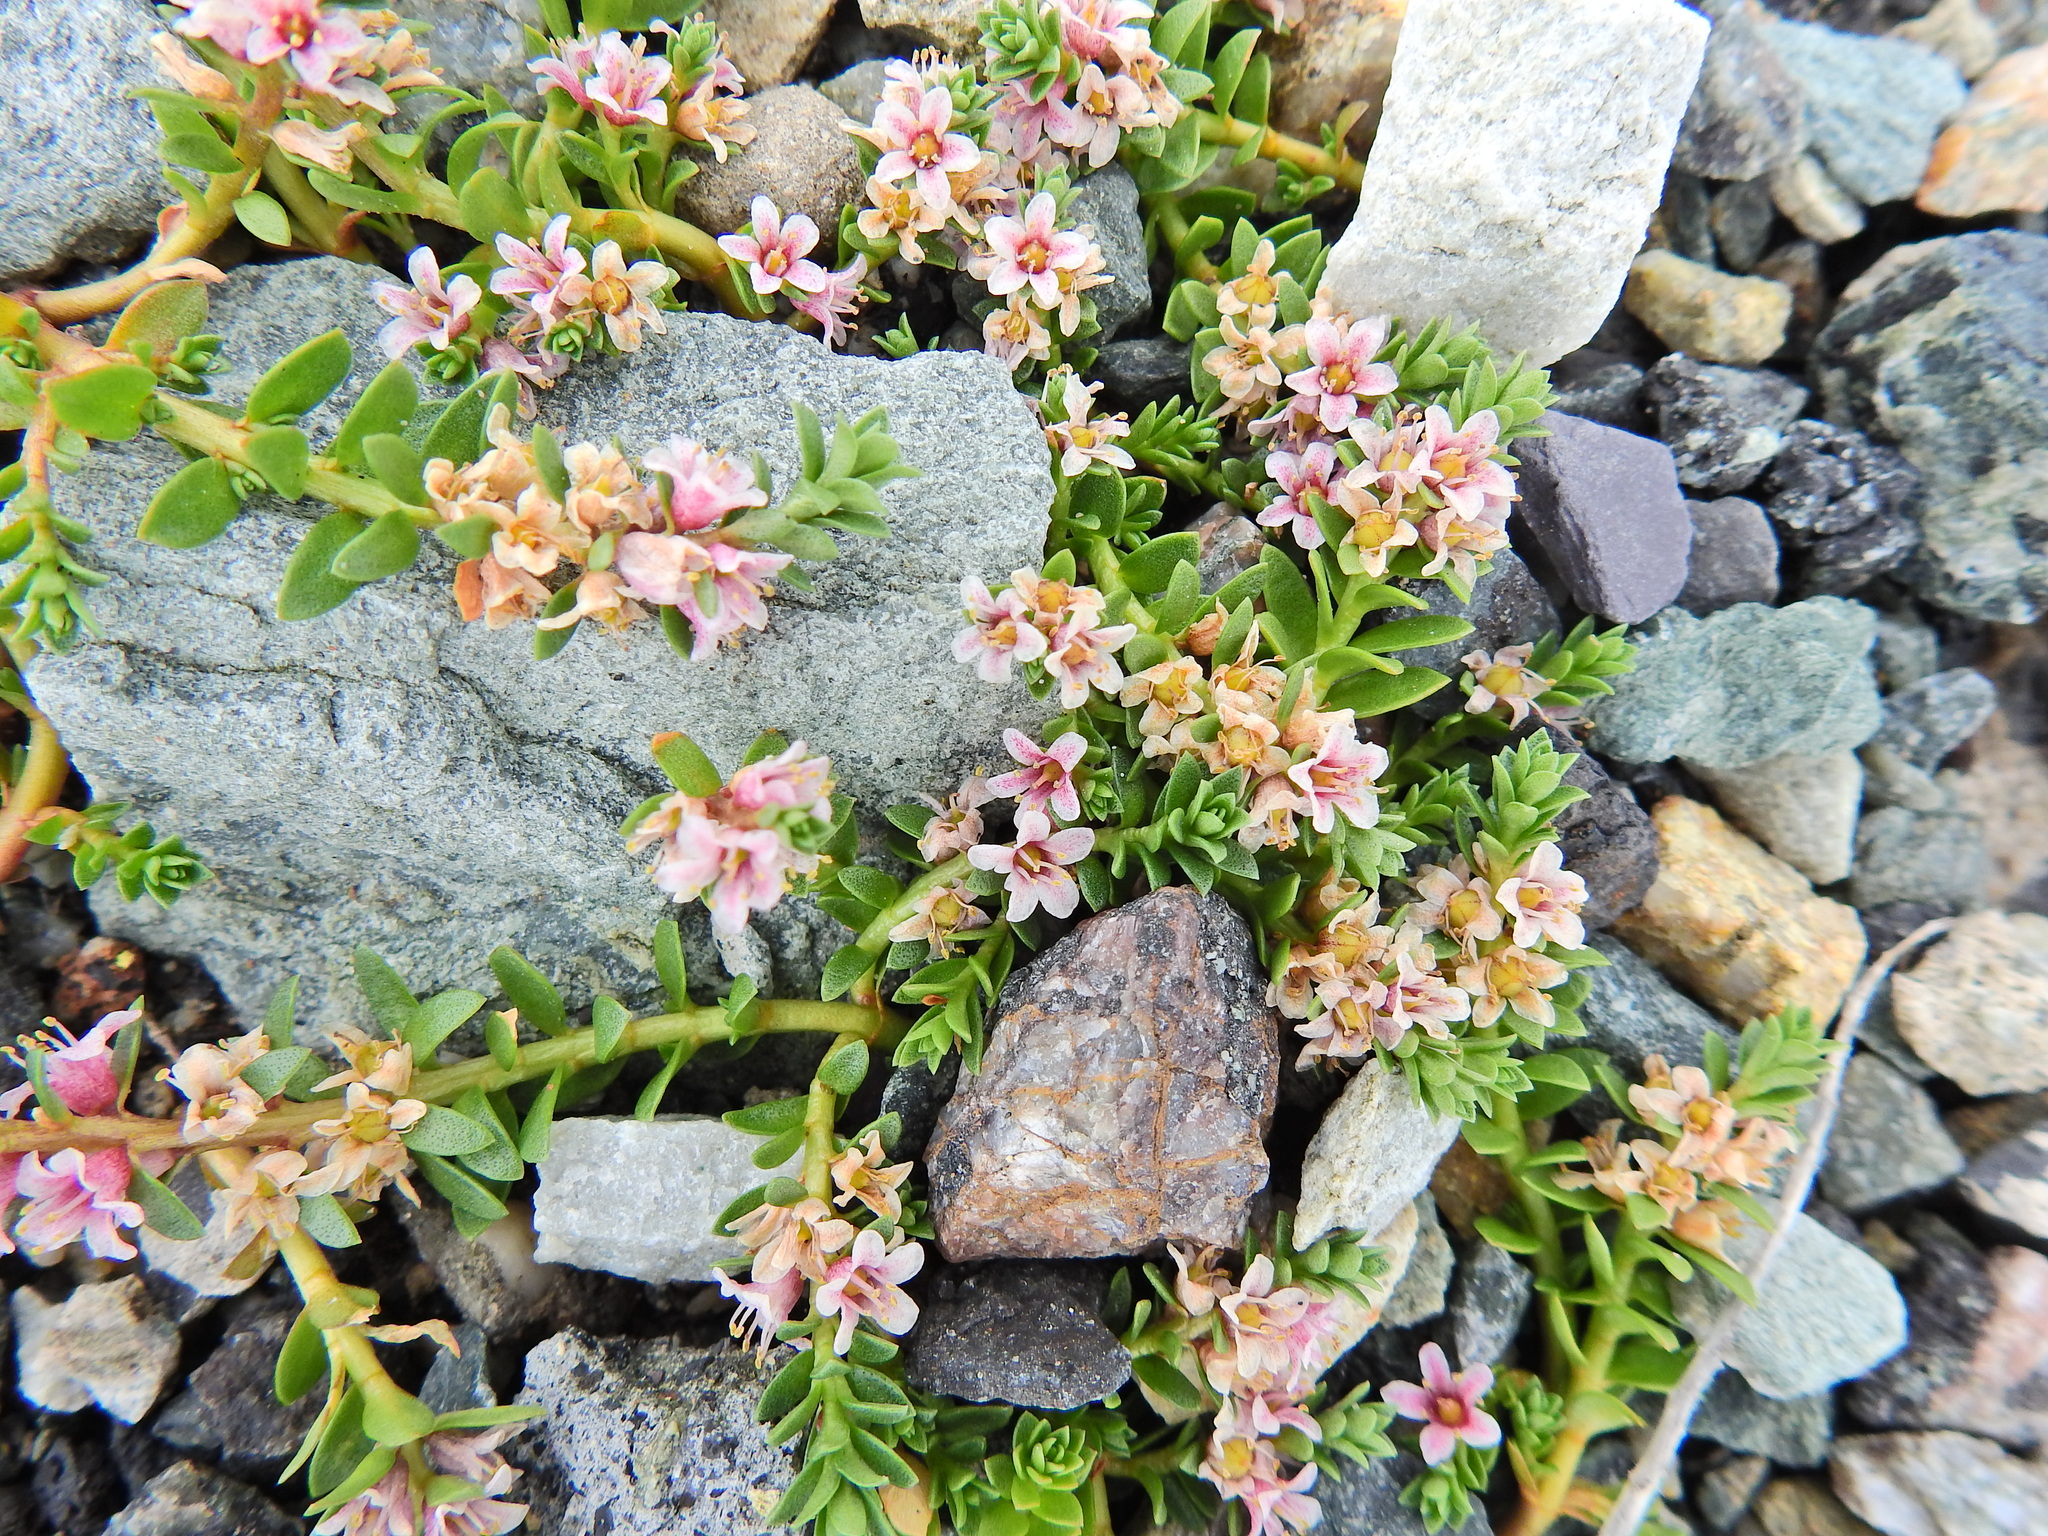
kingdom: Plantae
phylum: Tracheophyta
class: Magnoliopsida
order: Ericales
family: Primulaceae
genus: Lysimachia
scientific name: Lysimachia maritima
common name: Sea milkwort
